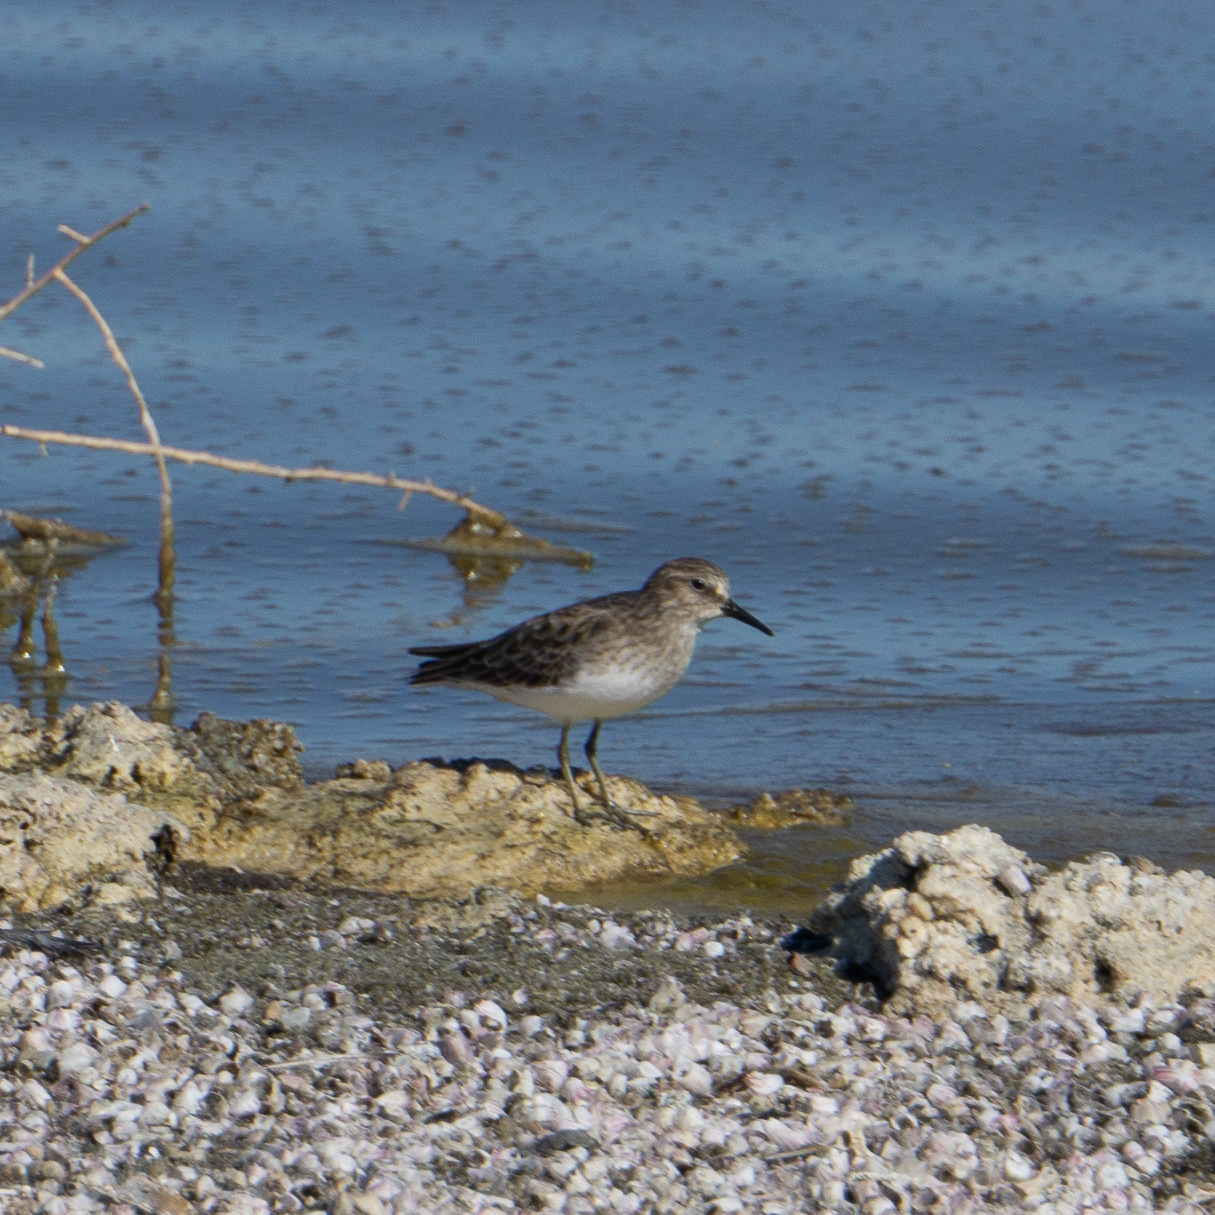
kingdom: Animalia
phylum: Chordata
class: Aves
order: Charadriiformes
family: Scolopacidae
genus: Calidris
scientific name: Calidris minutilla
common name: Least sandpiper
